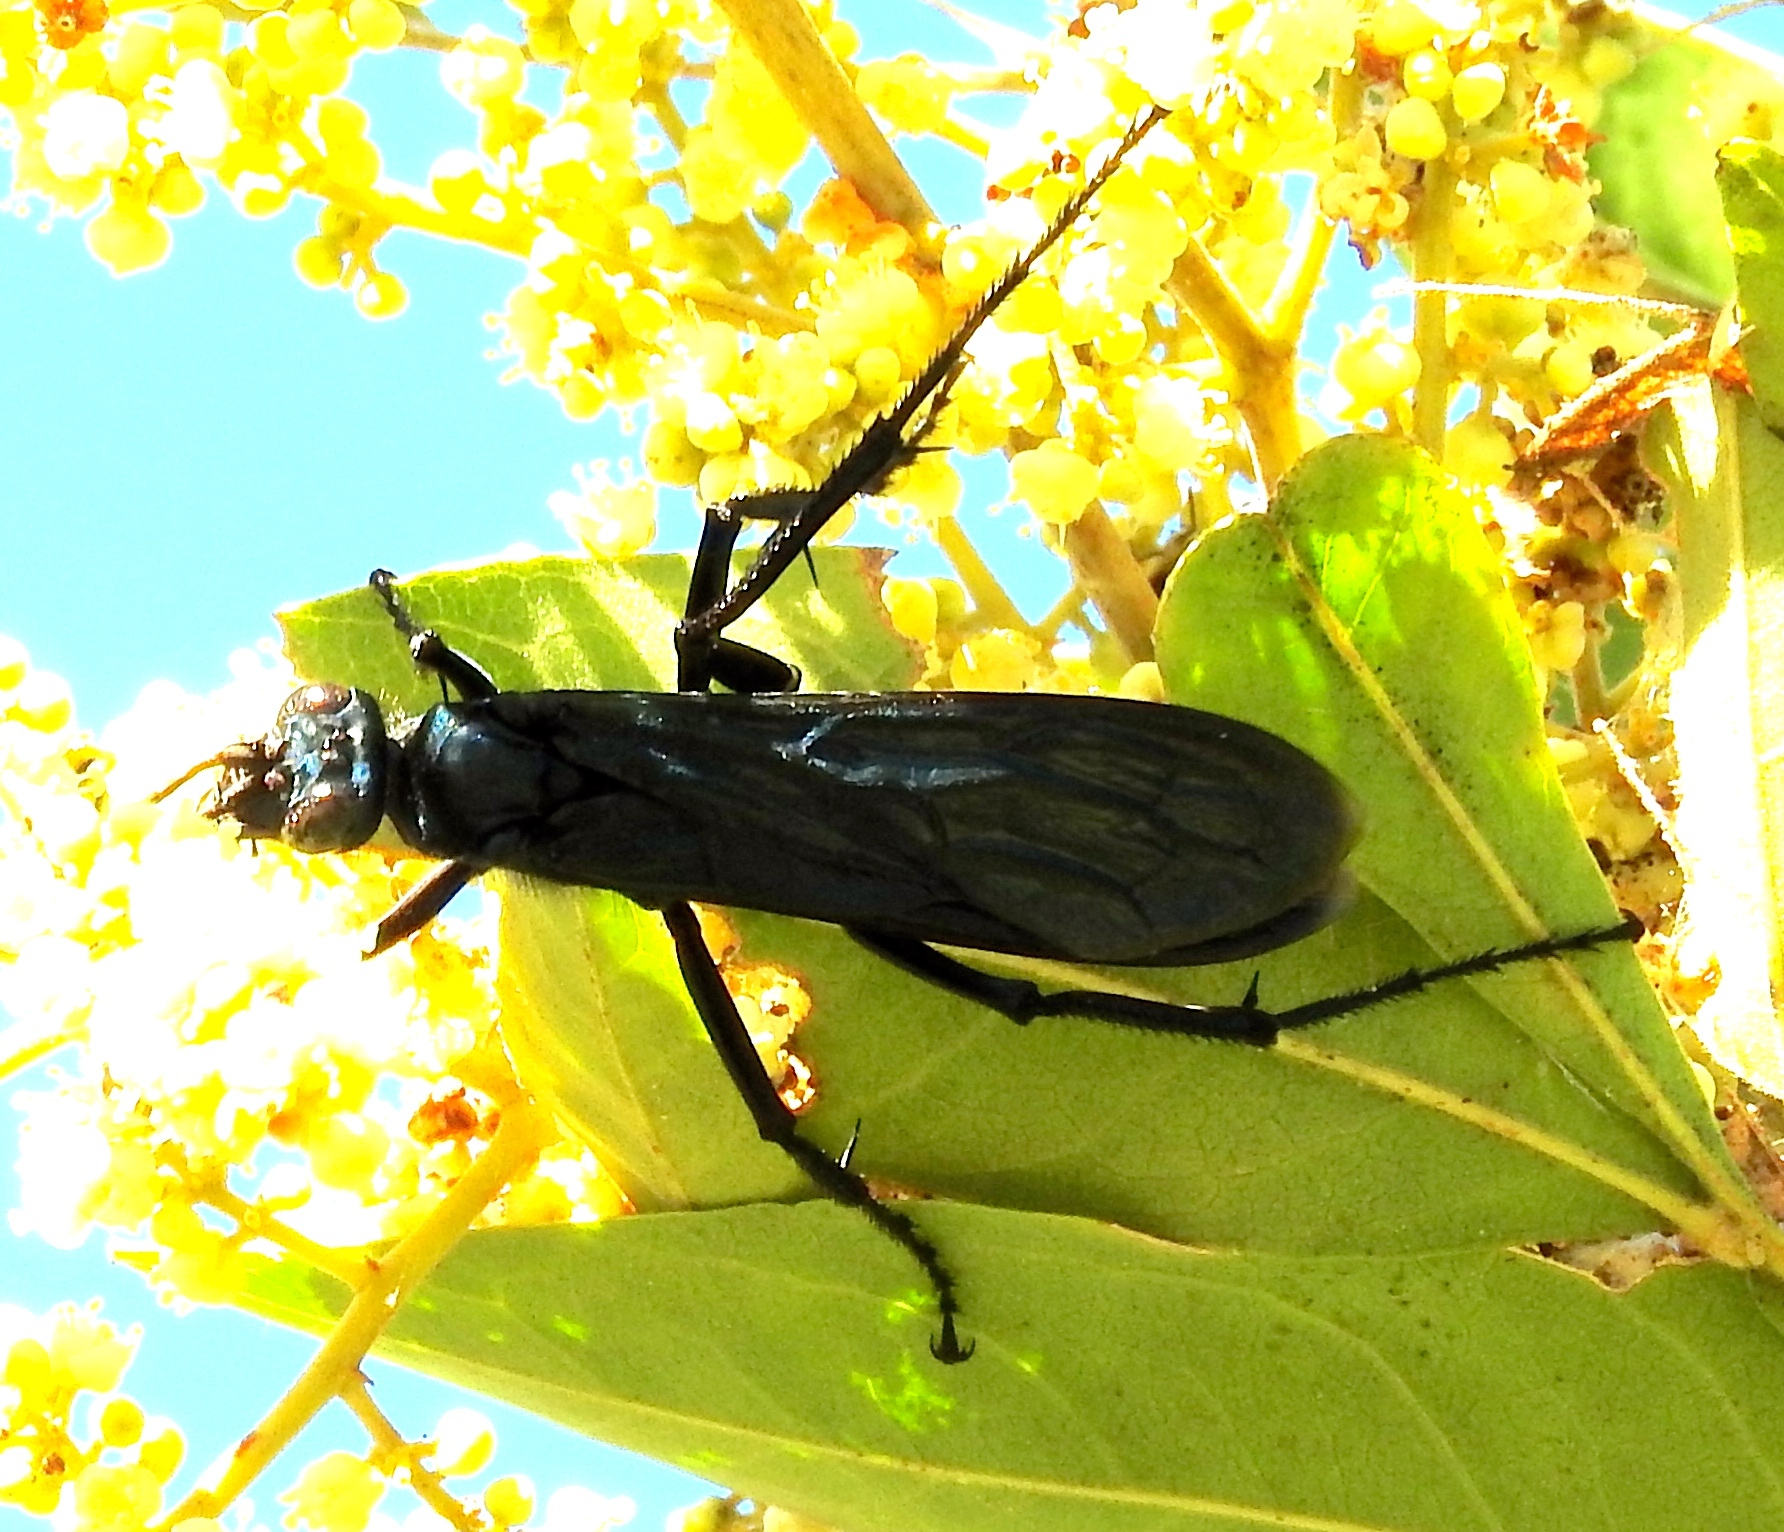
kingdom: Animalia
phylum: Arthropoda
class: Insecta
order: Hymenoptera
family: Pompilidae
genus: Pepsis
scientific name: Pepsis mexicana
